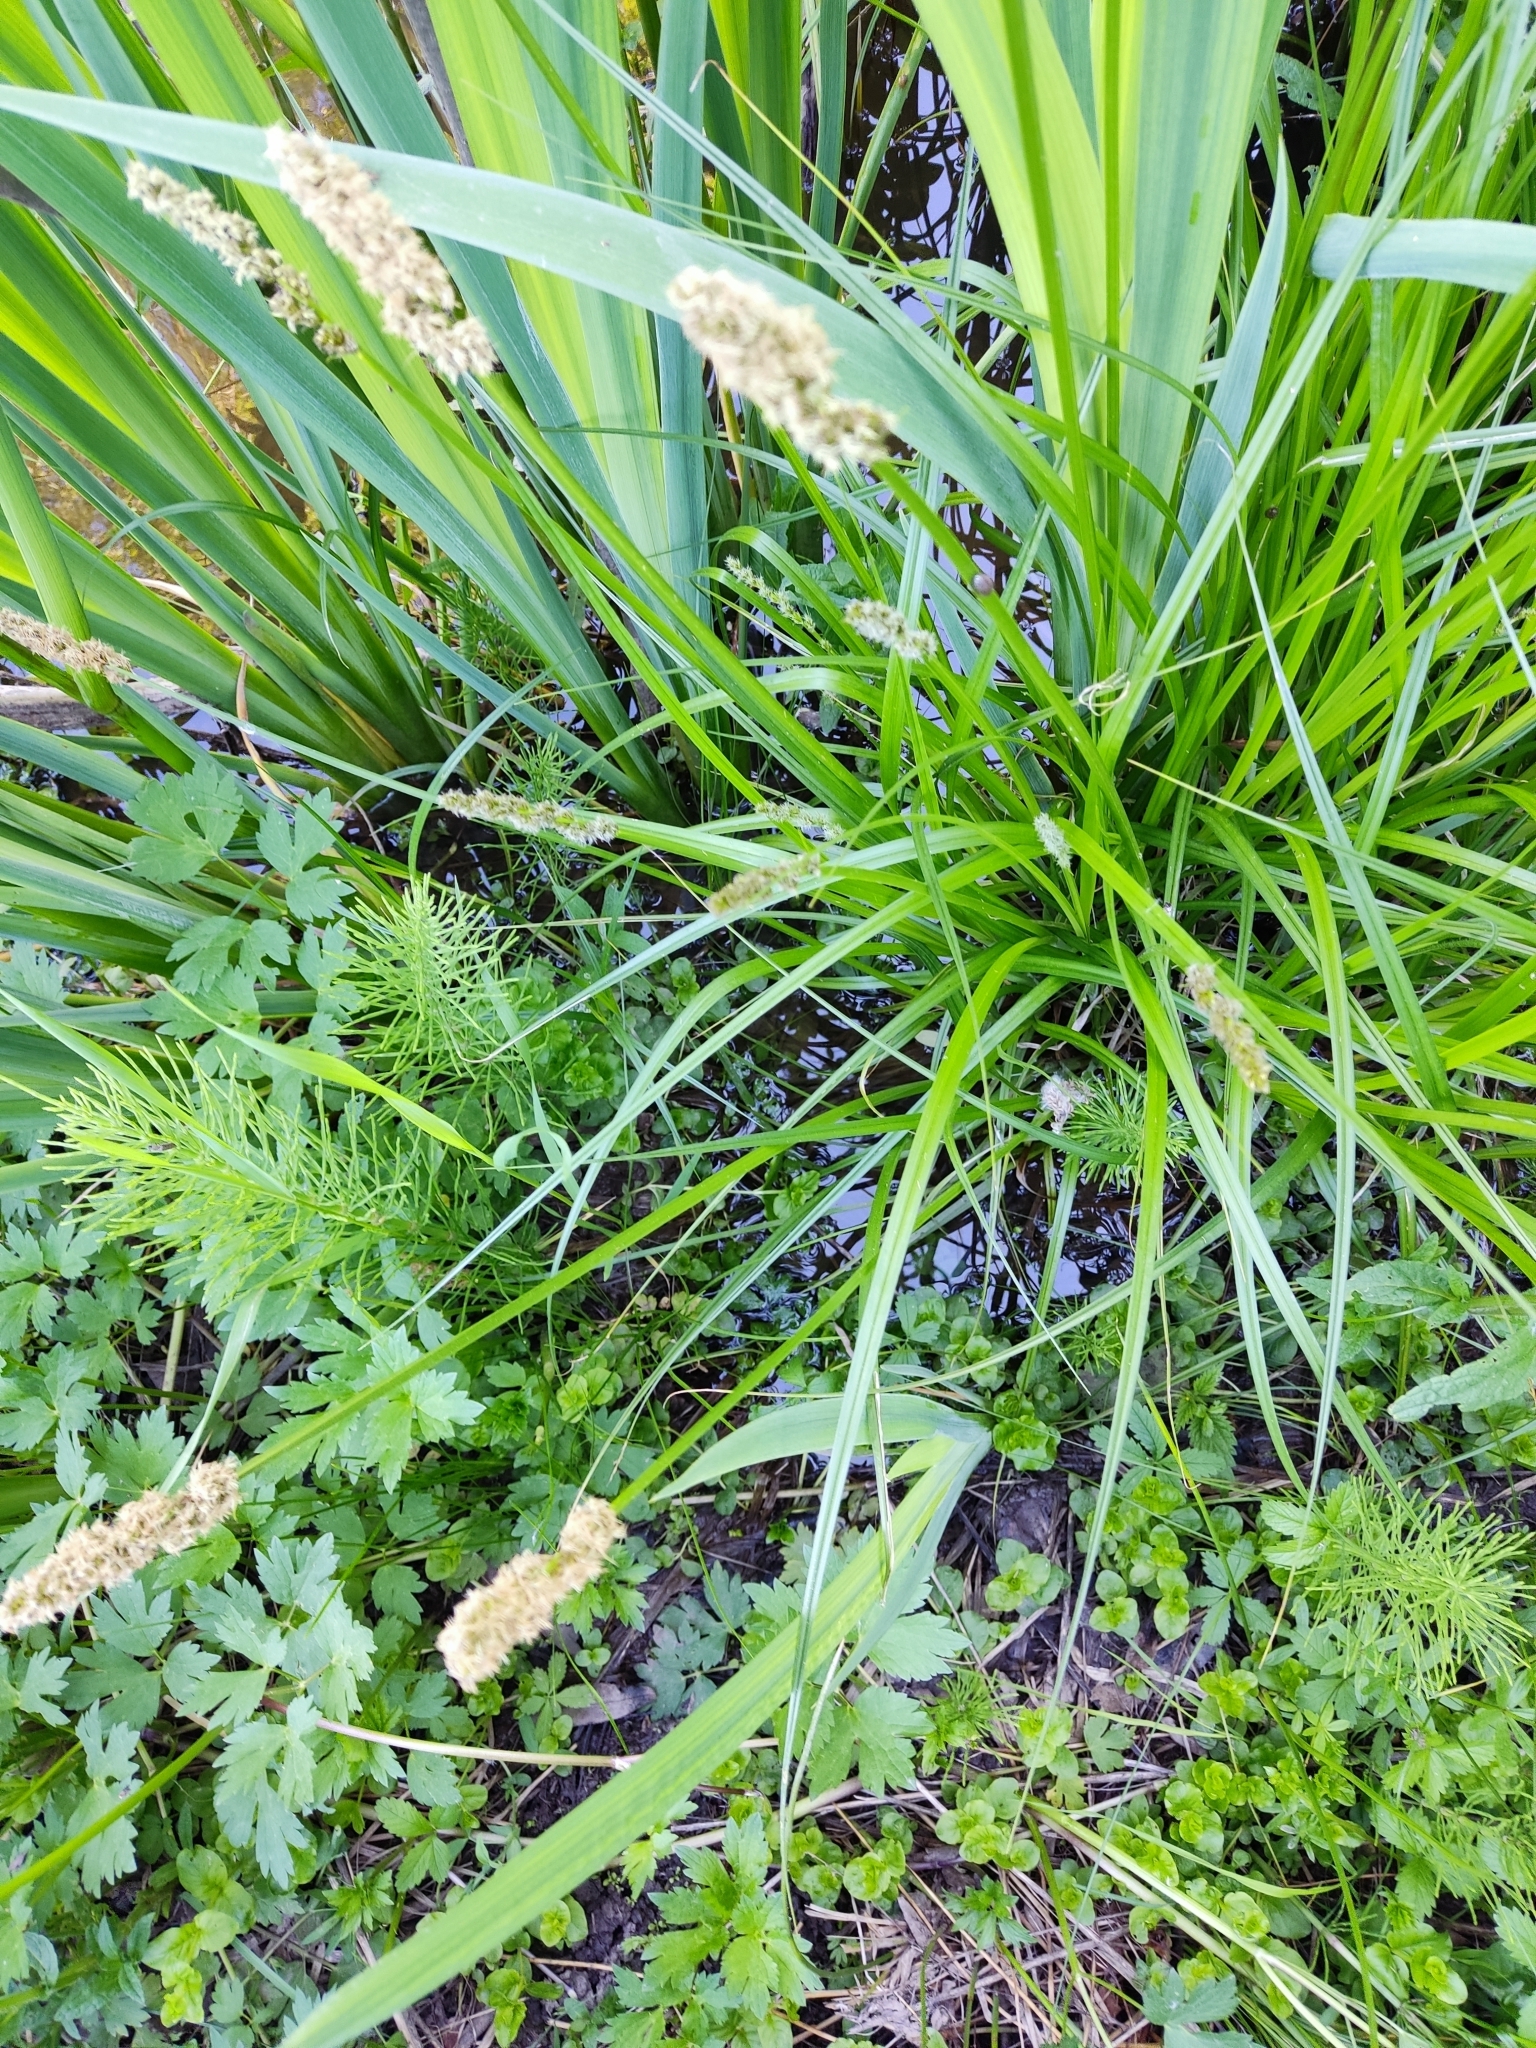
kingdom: Plantae
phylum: Tracheophyta
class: Liliopsida
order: Poales
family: Cyperaceae
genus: Carex
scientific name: Carex vulpina
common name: True fox-sedge
